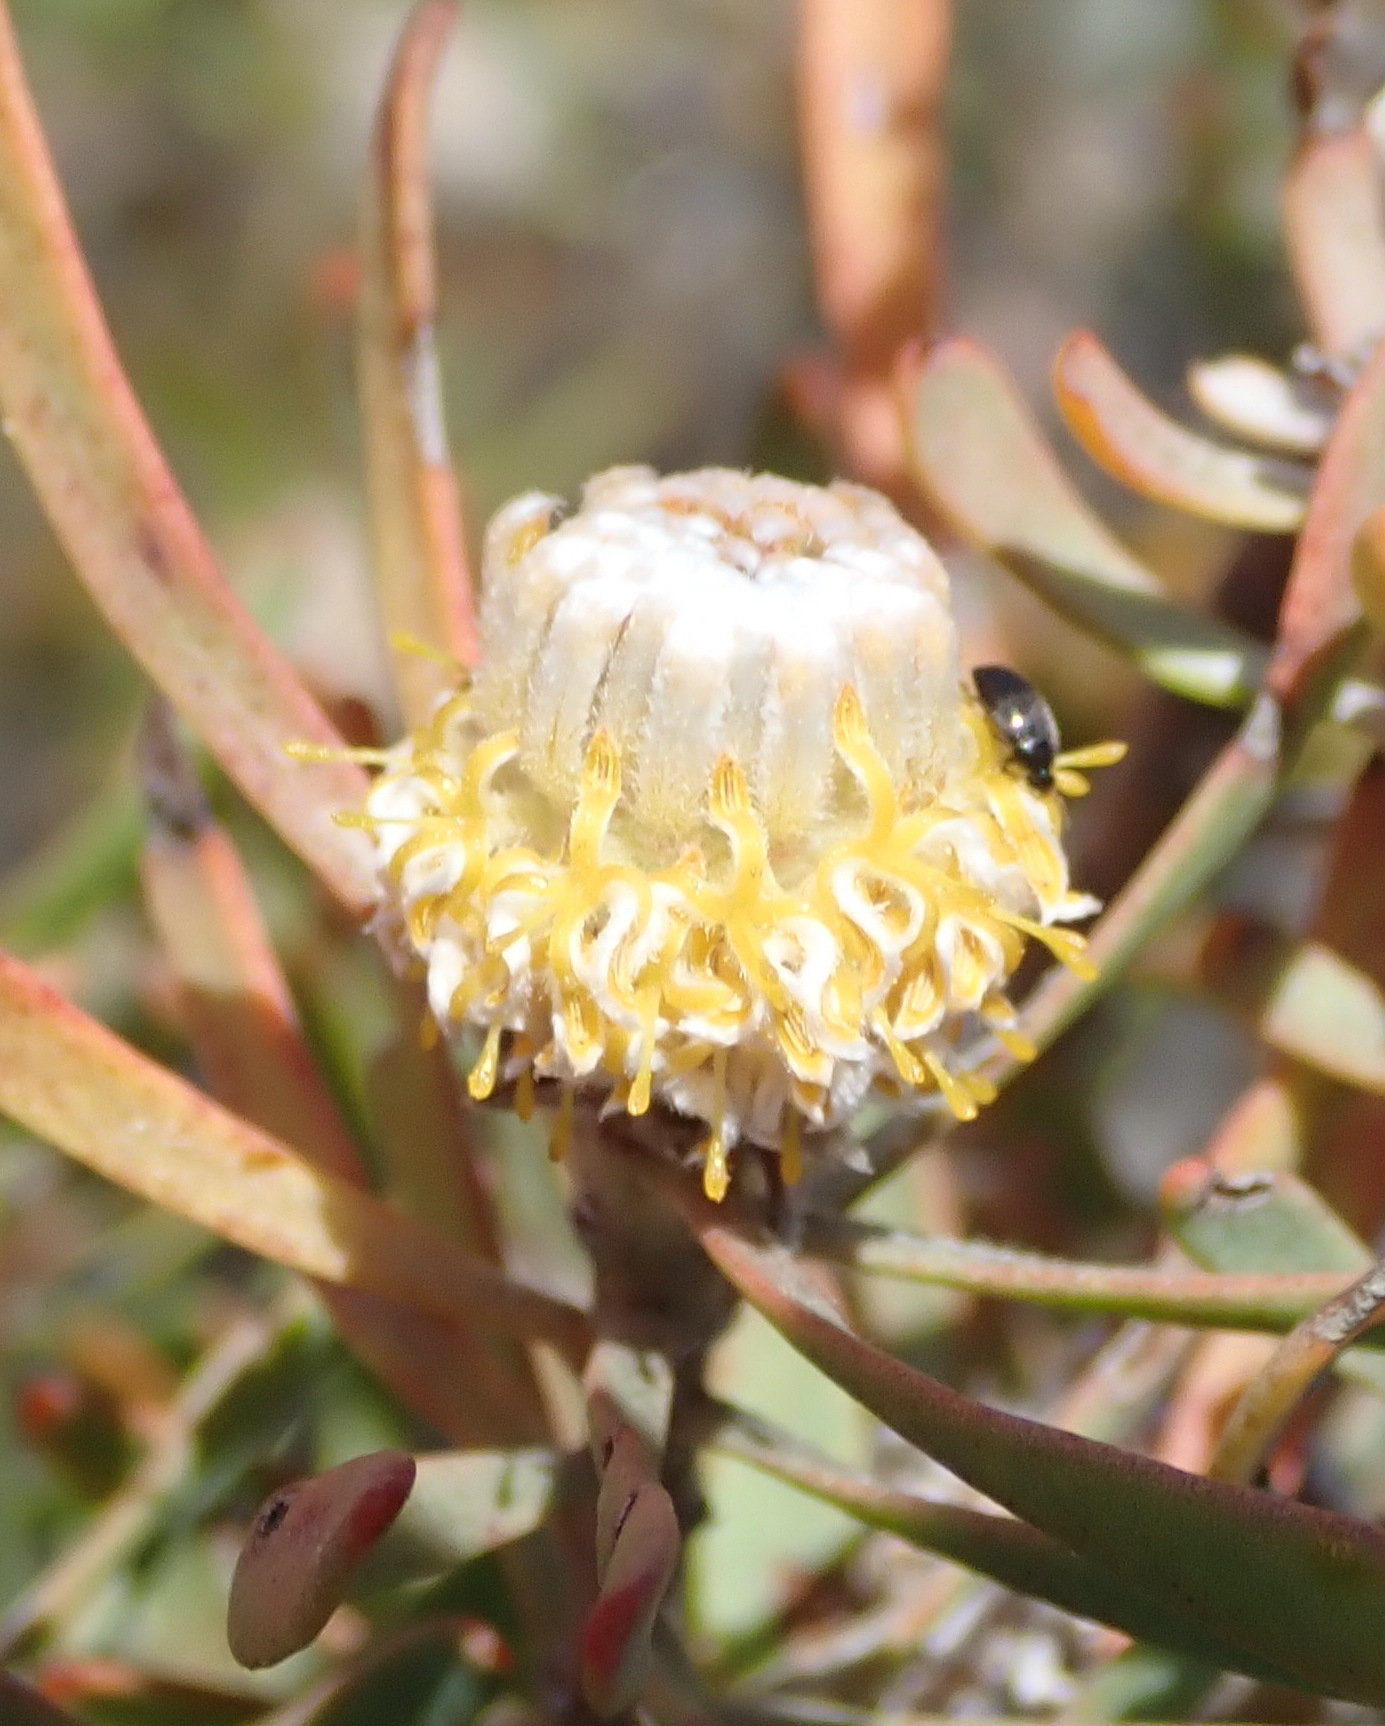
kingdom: Plantae
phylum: Tracheophyta
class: Magnoliopsida
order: Proteales
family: Proteaceae
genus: Leucadendron
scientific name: Leucadendron galpinii
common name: Hairless conebush
